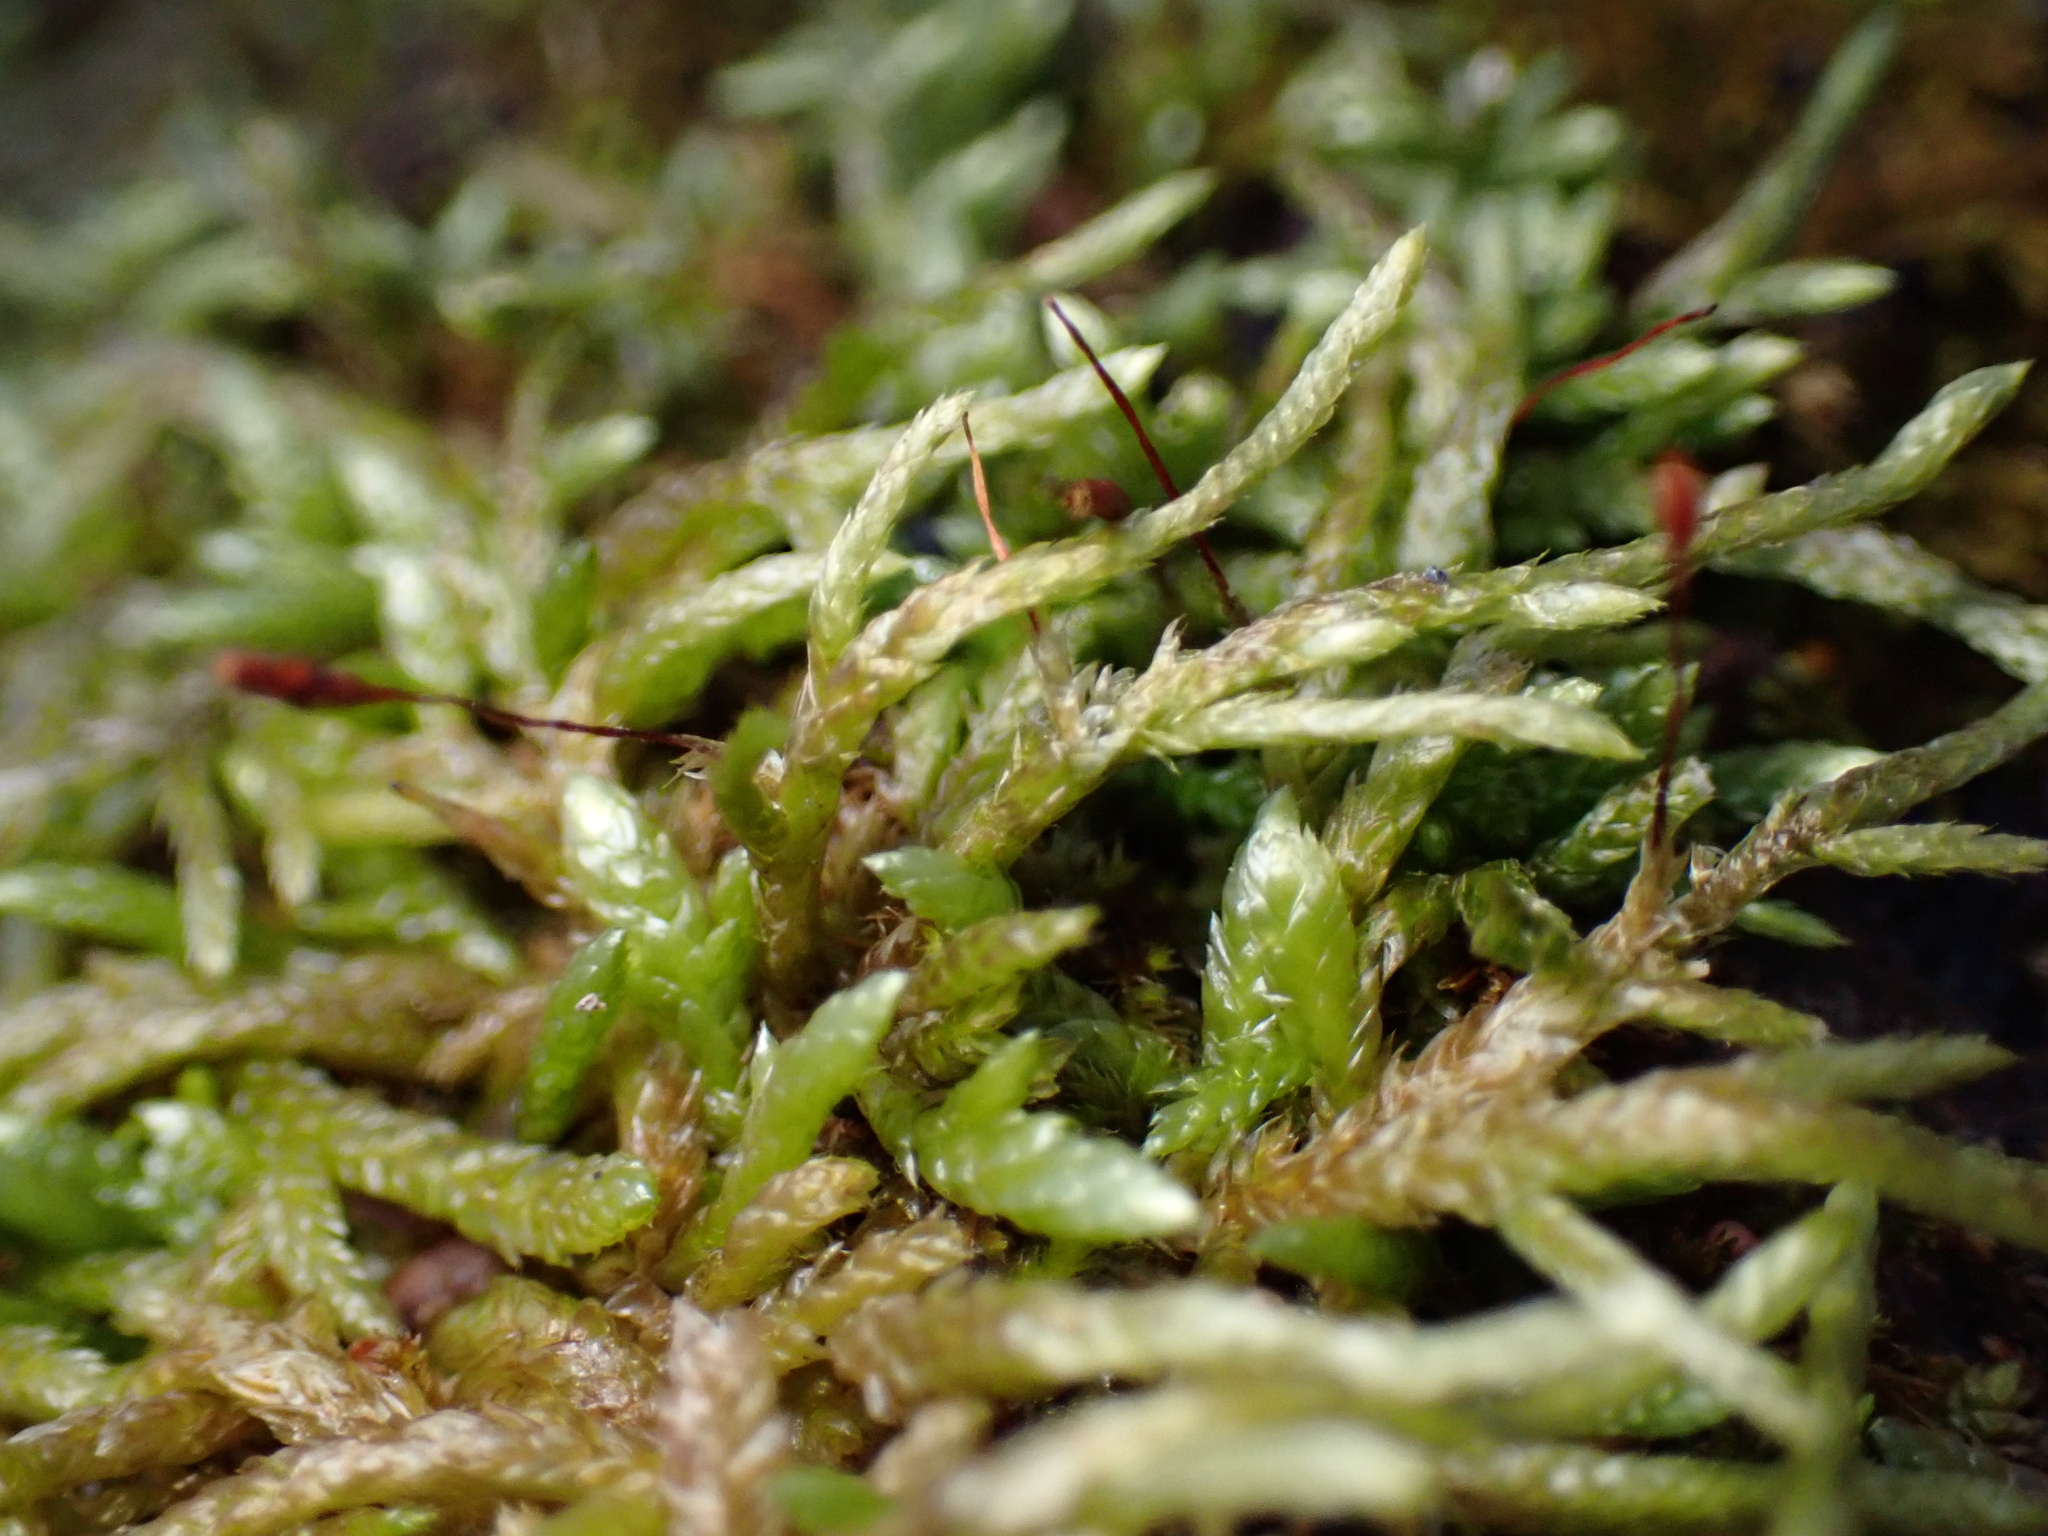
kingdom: Plantae
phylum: Bryophyta
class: Bryopsida
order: Hypnales
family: Entodontaceae
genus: Entodon
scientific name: Entodon cladorrhizans
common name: Flat-stemmed entodon moss
